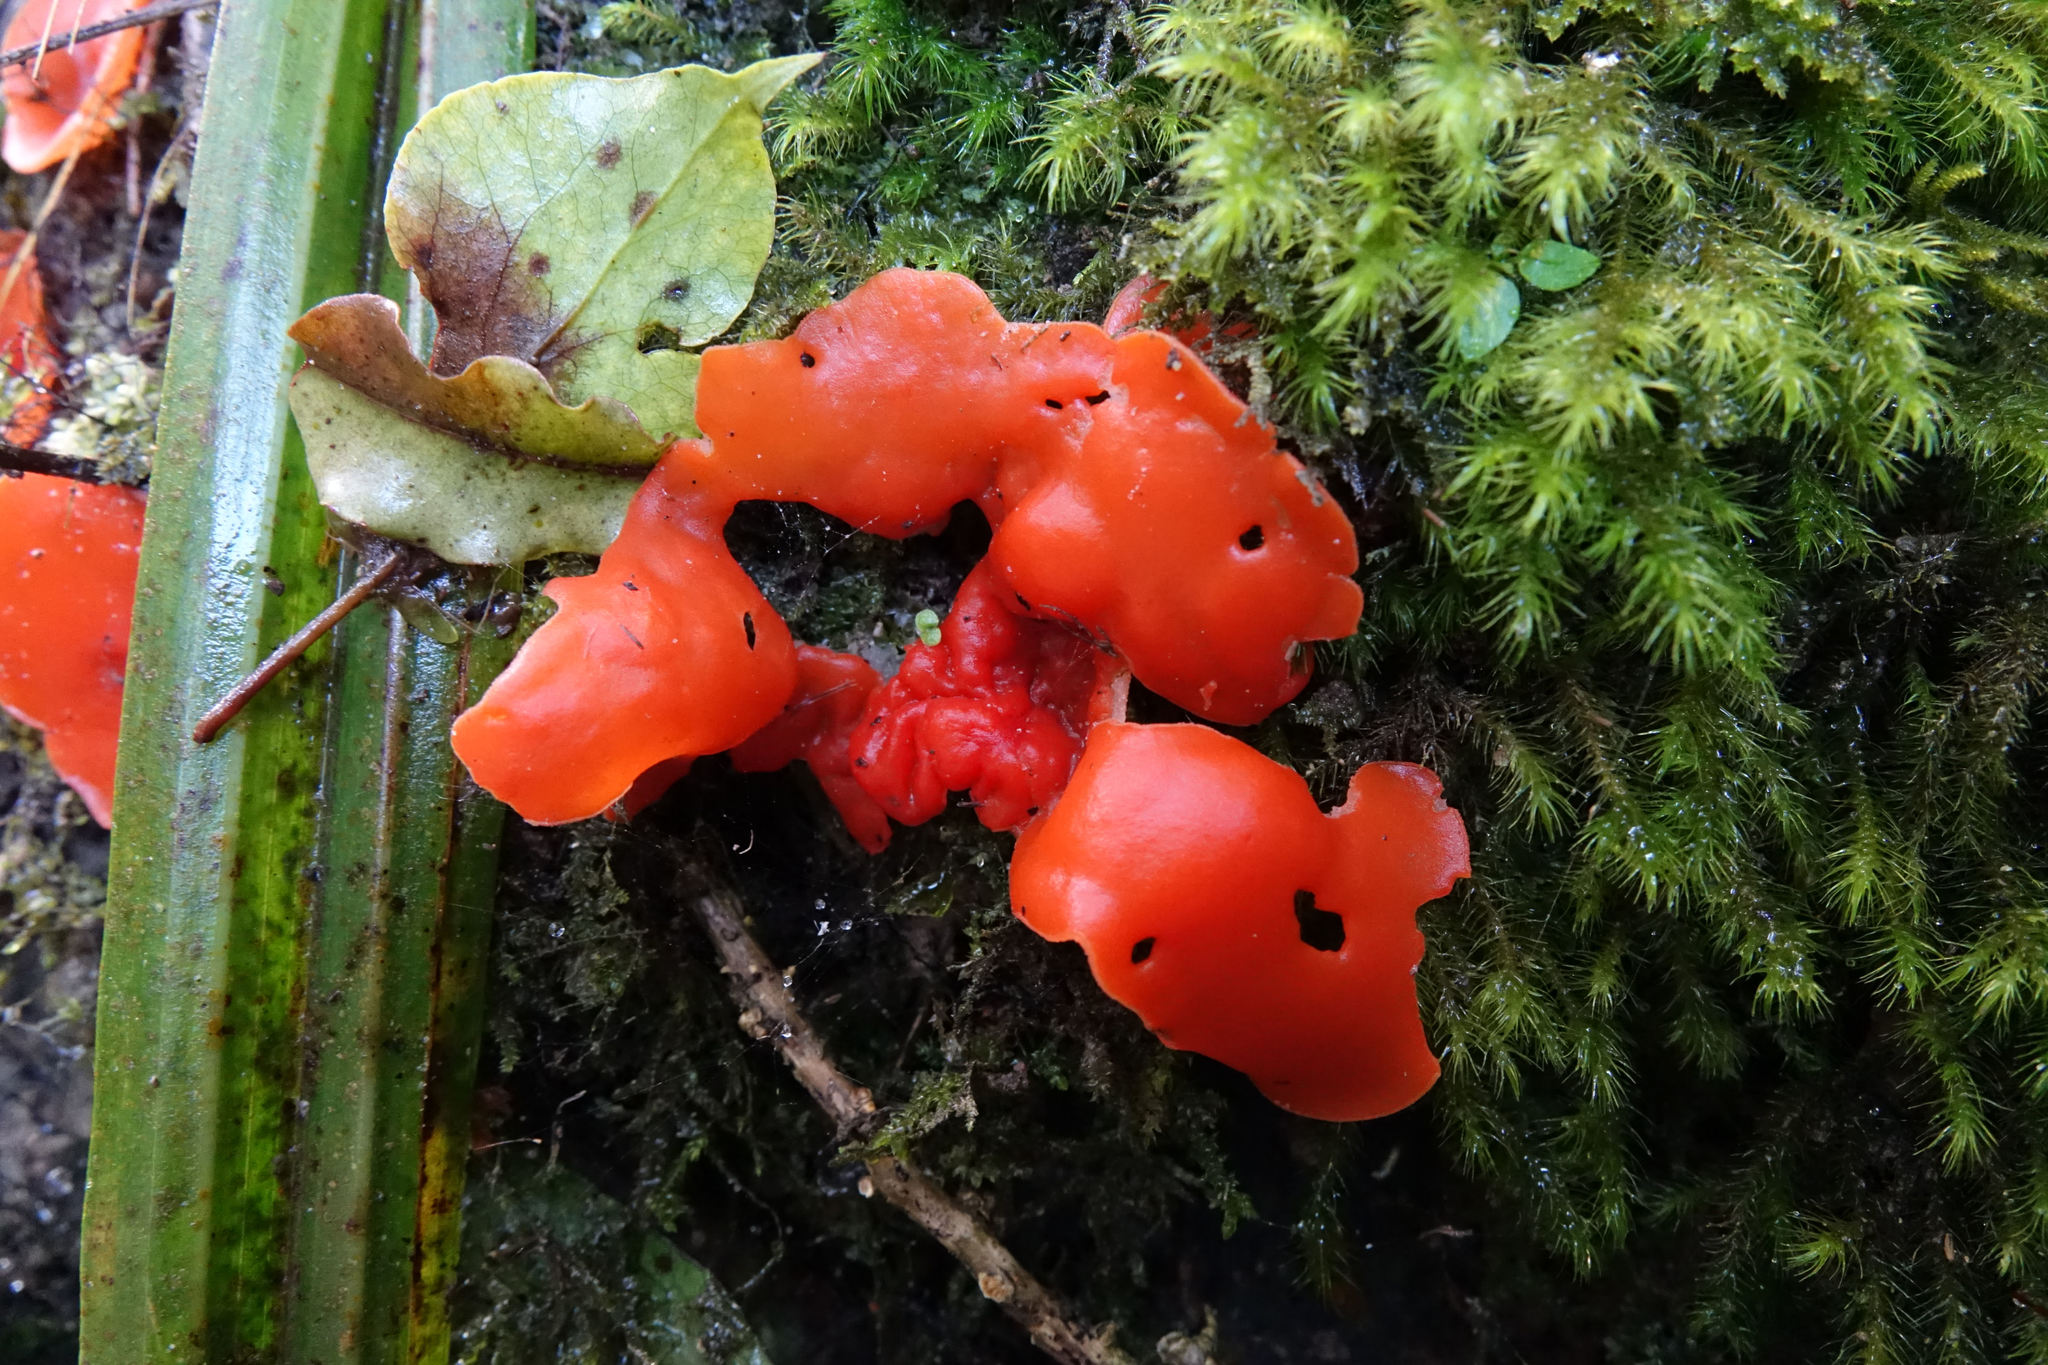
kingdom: Fungi
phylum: Ascomycota
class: Pezizomycetes
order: Pezizales
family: Pyronemataceae
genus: Aleuria
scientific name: Aleuria aurantia
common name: Orange peel fungus
